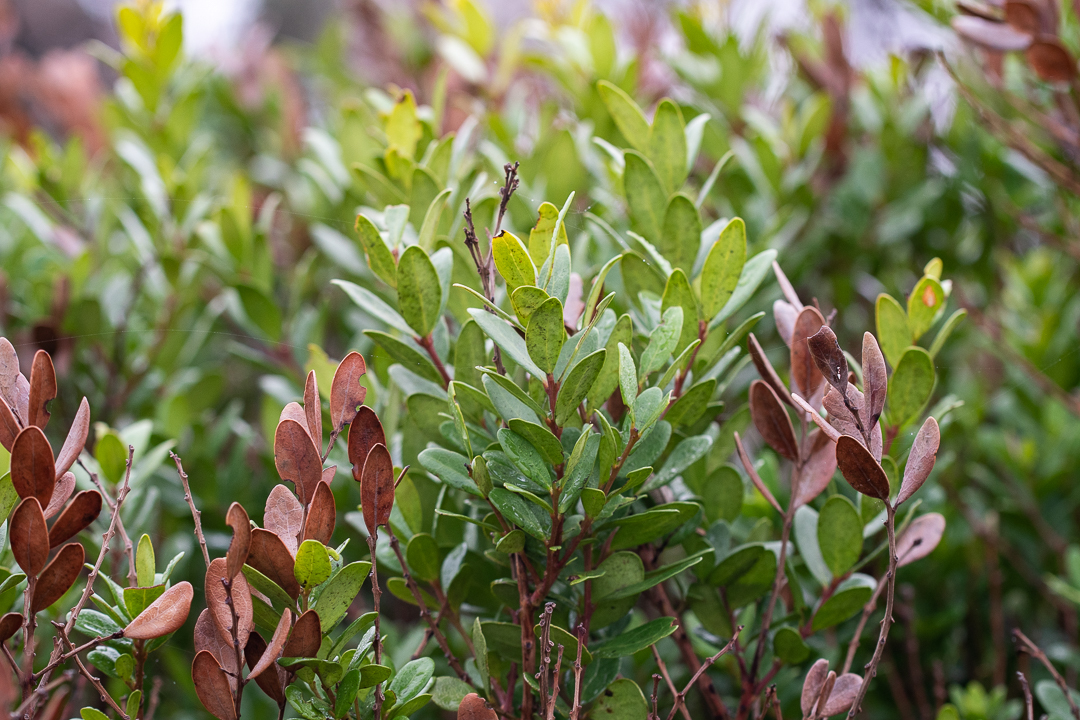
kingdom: Plantae
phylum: Tracheophyta
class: Magnoliopsida
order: Ericales
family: Ebenaceae
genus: Euclea
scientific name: Euclea racemosa
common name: Dune guarri
